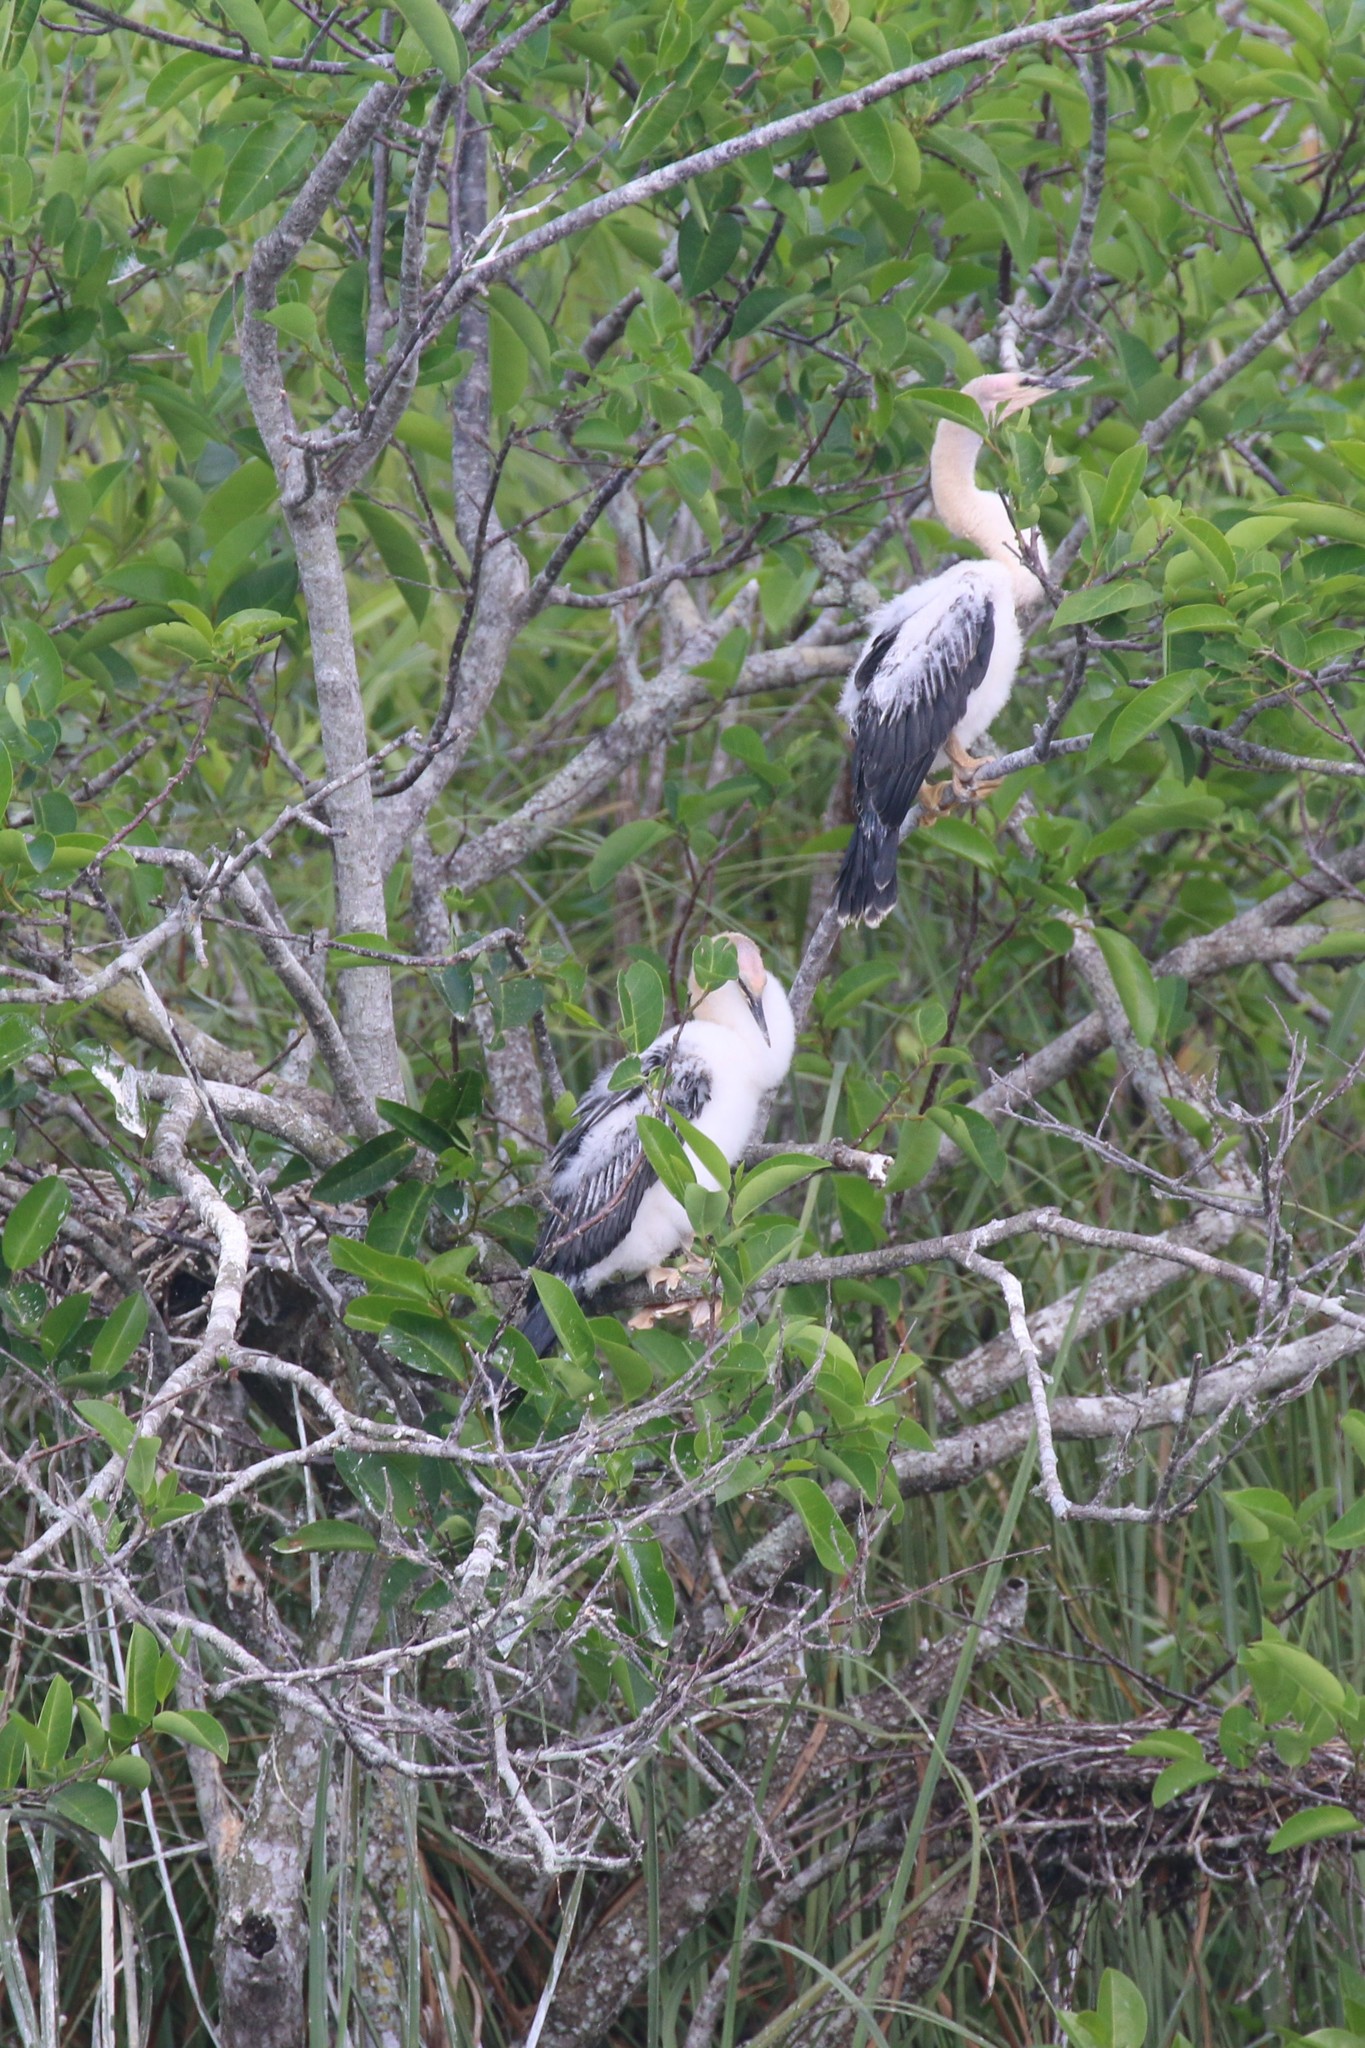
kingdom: Animalia
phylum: Chordata
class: Aves
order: Suliformes
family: Anhingidae
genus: Anhinga
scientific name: Anhinga anhinga
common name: Anhinga
